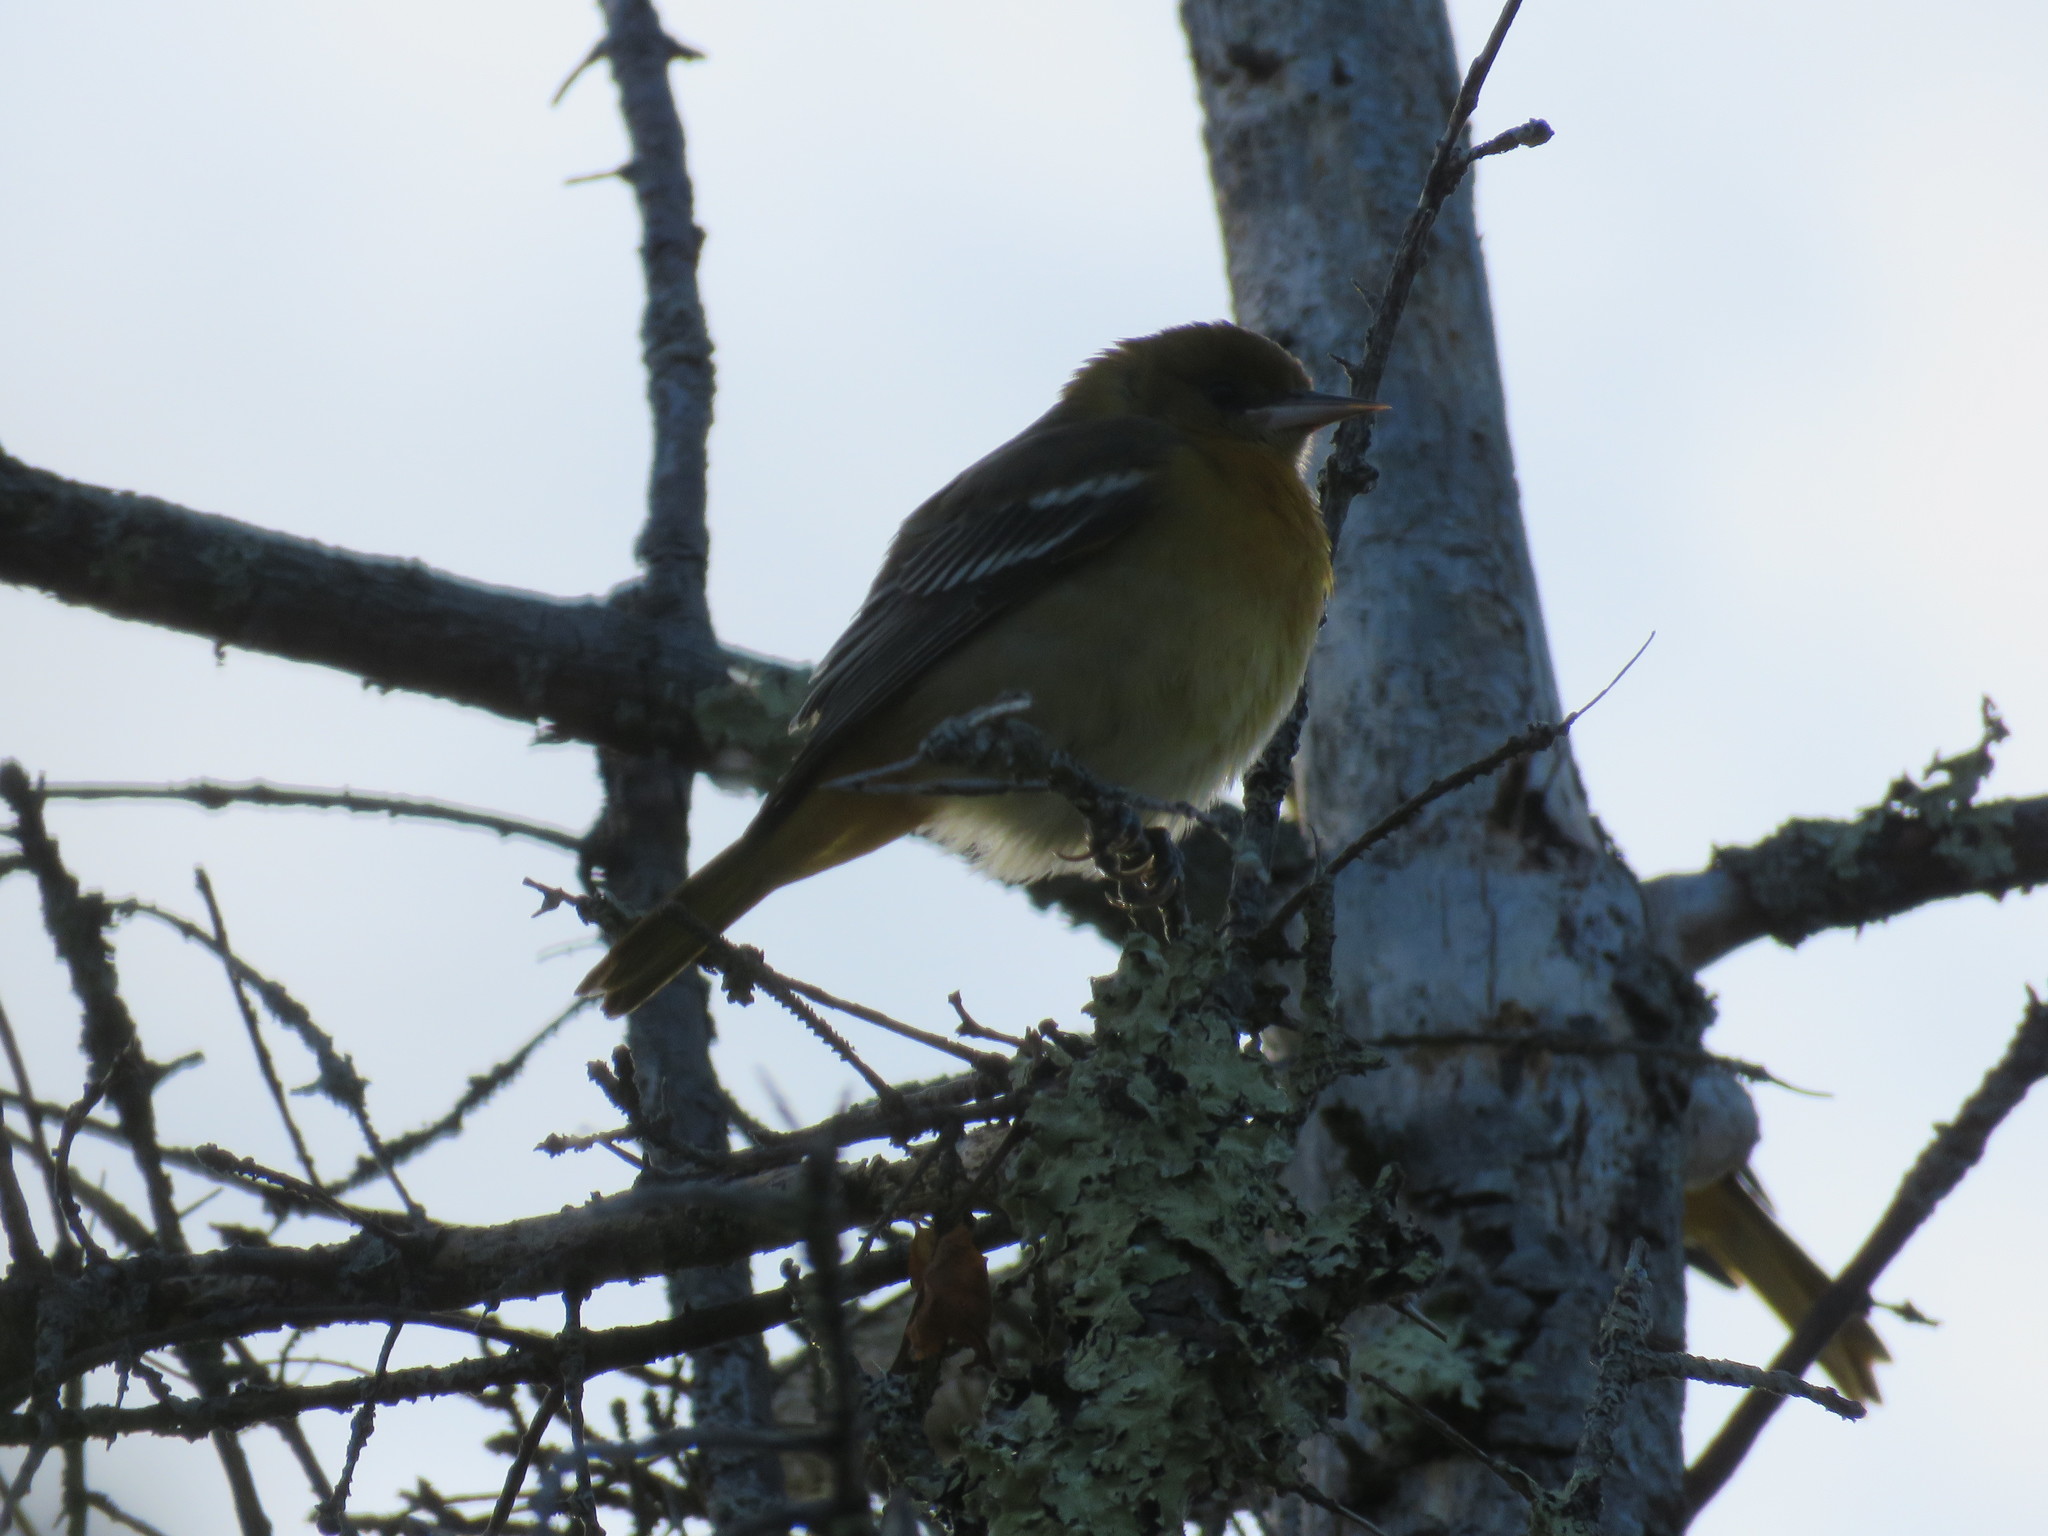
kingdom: Animalia
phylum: Chordata
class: Aves
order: Passeriformes
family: Icteridae
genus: Icterus
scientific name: Icterus galbula
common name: Baltimore oriole
